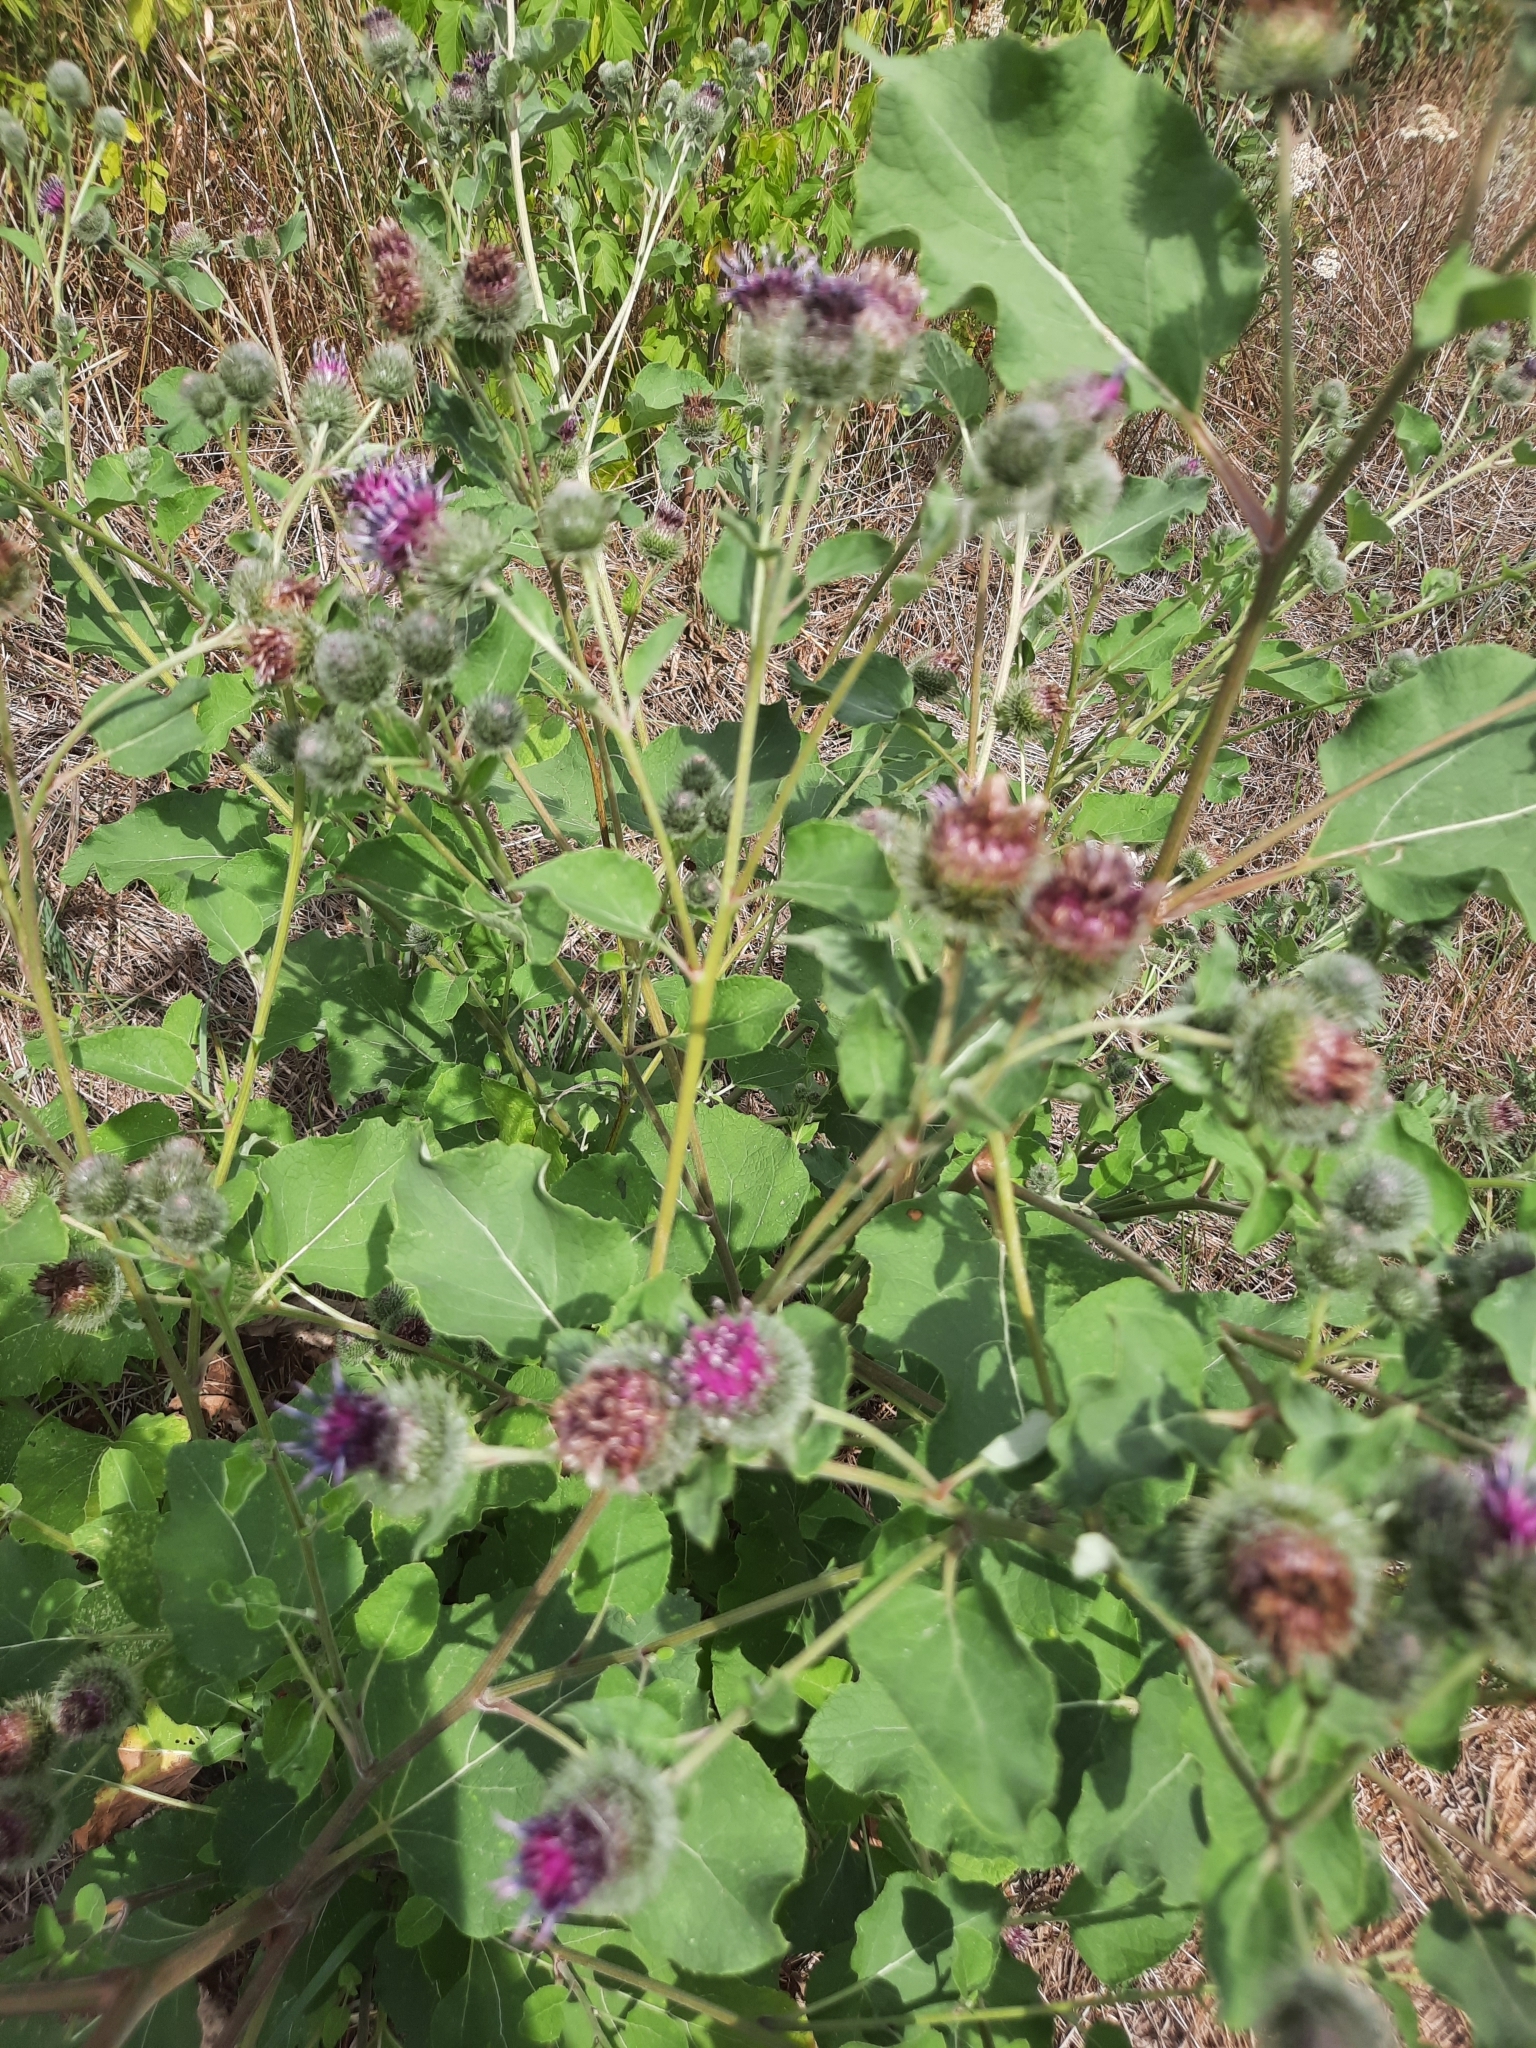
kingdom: Plantae
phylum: Tracheophyta
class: Magnoliopsida
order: Asterales
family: Asteraceae
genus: Arctium
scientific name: Arctium tomentosum
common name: Woolly burdock
